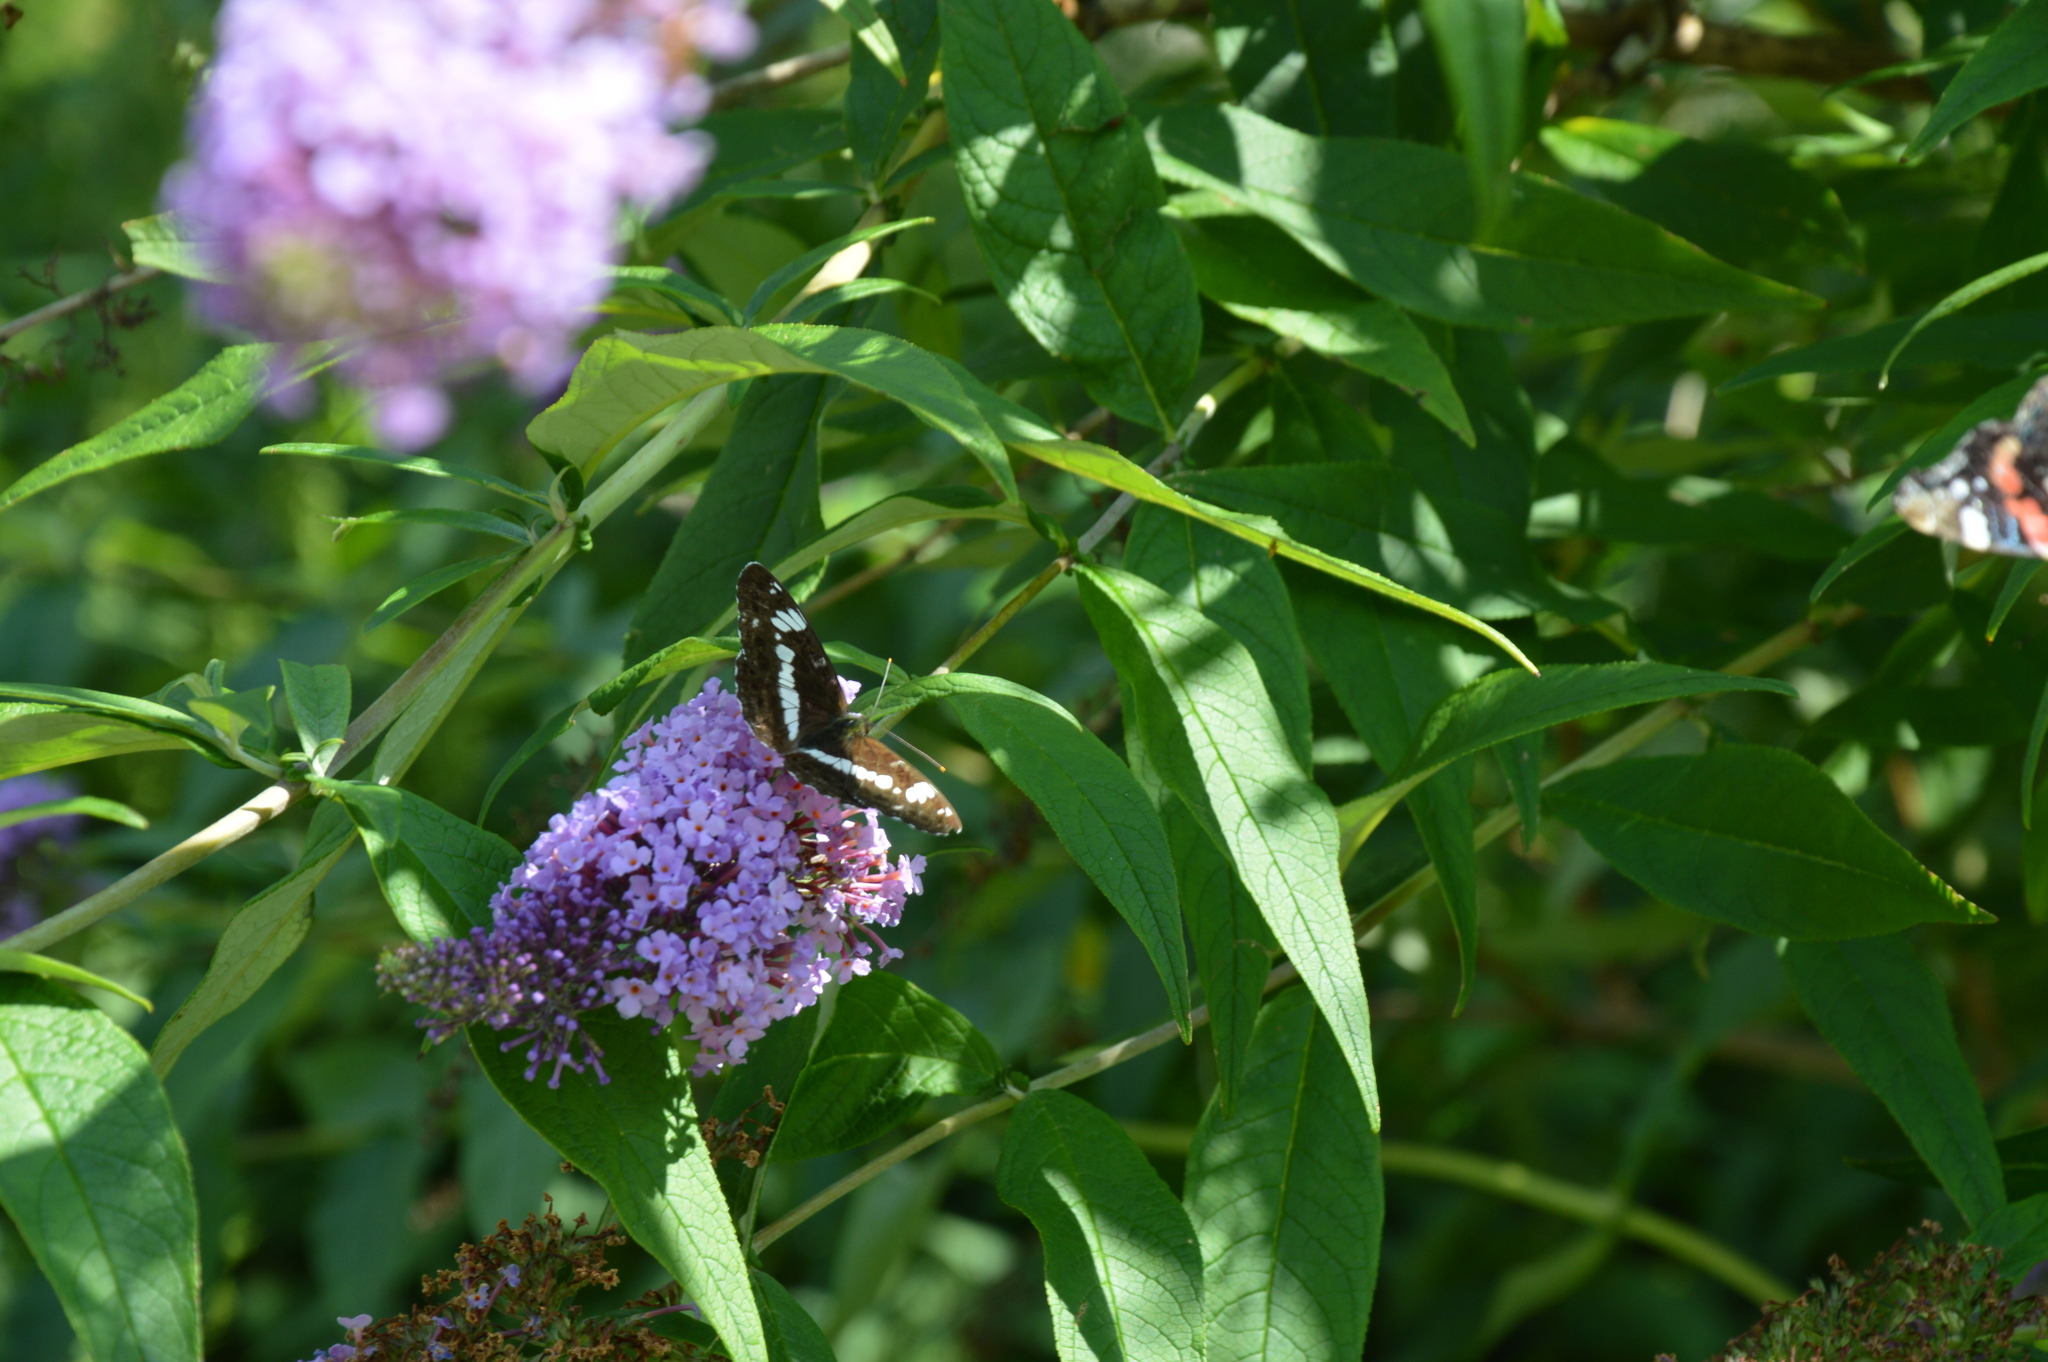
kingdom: Animalia
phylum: Arthropoda
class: Insecta
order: Lepidoptera
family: Nymphalidae
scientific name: Nymphalidae
